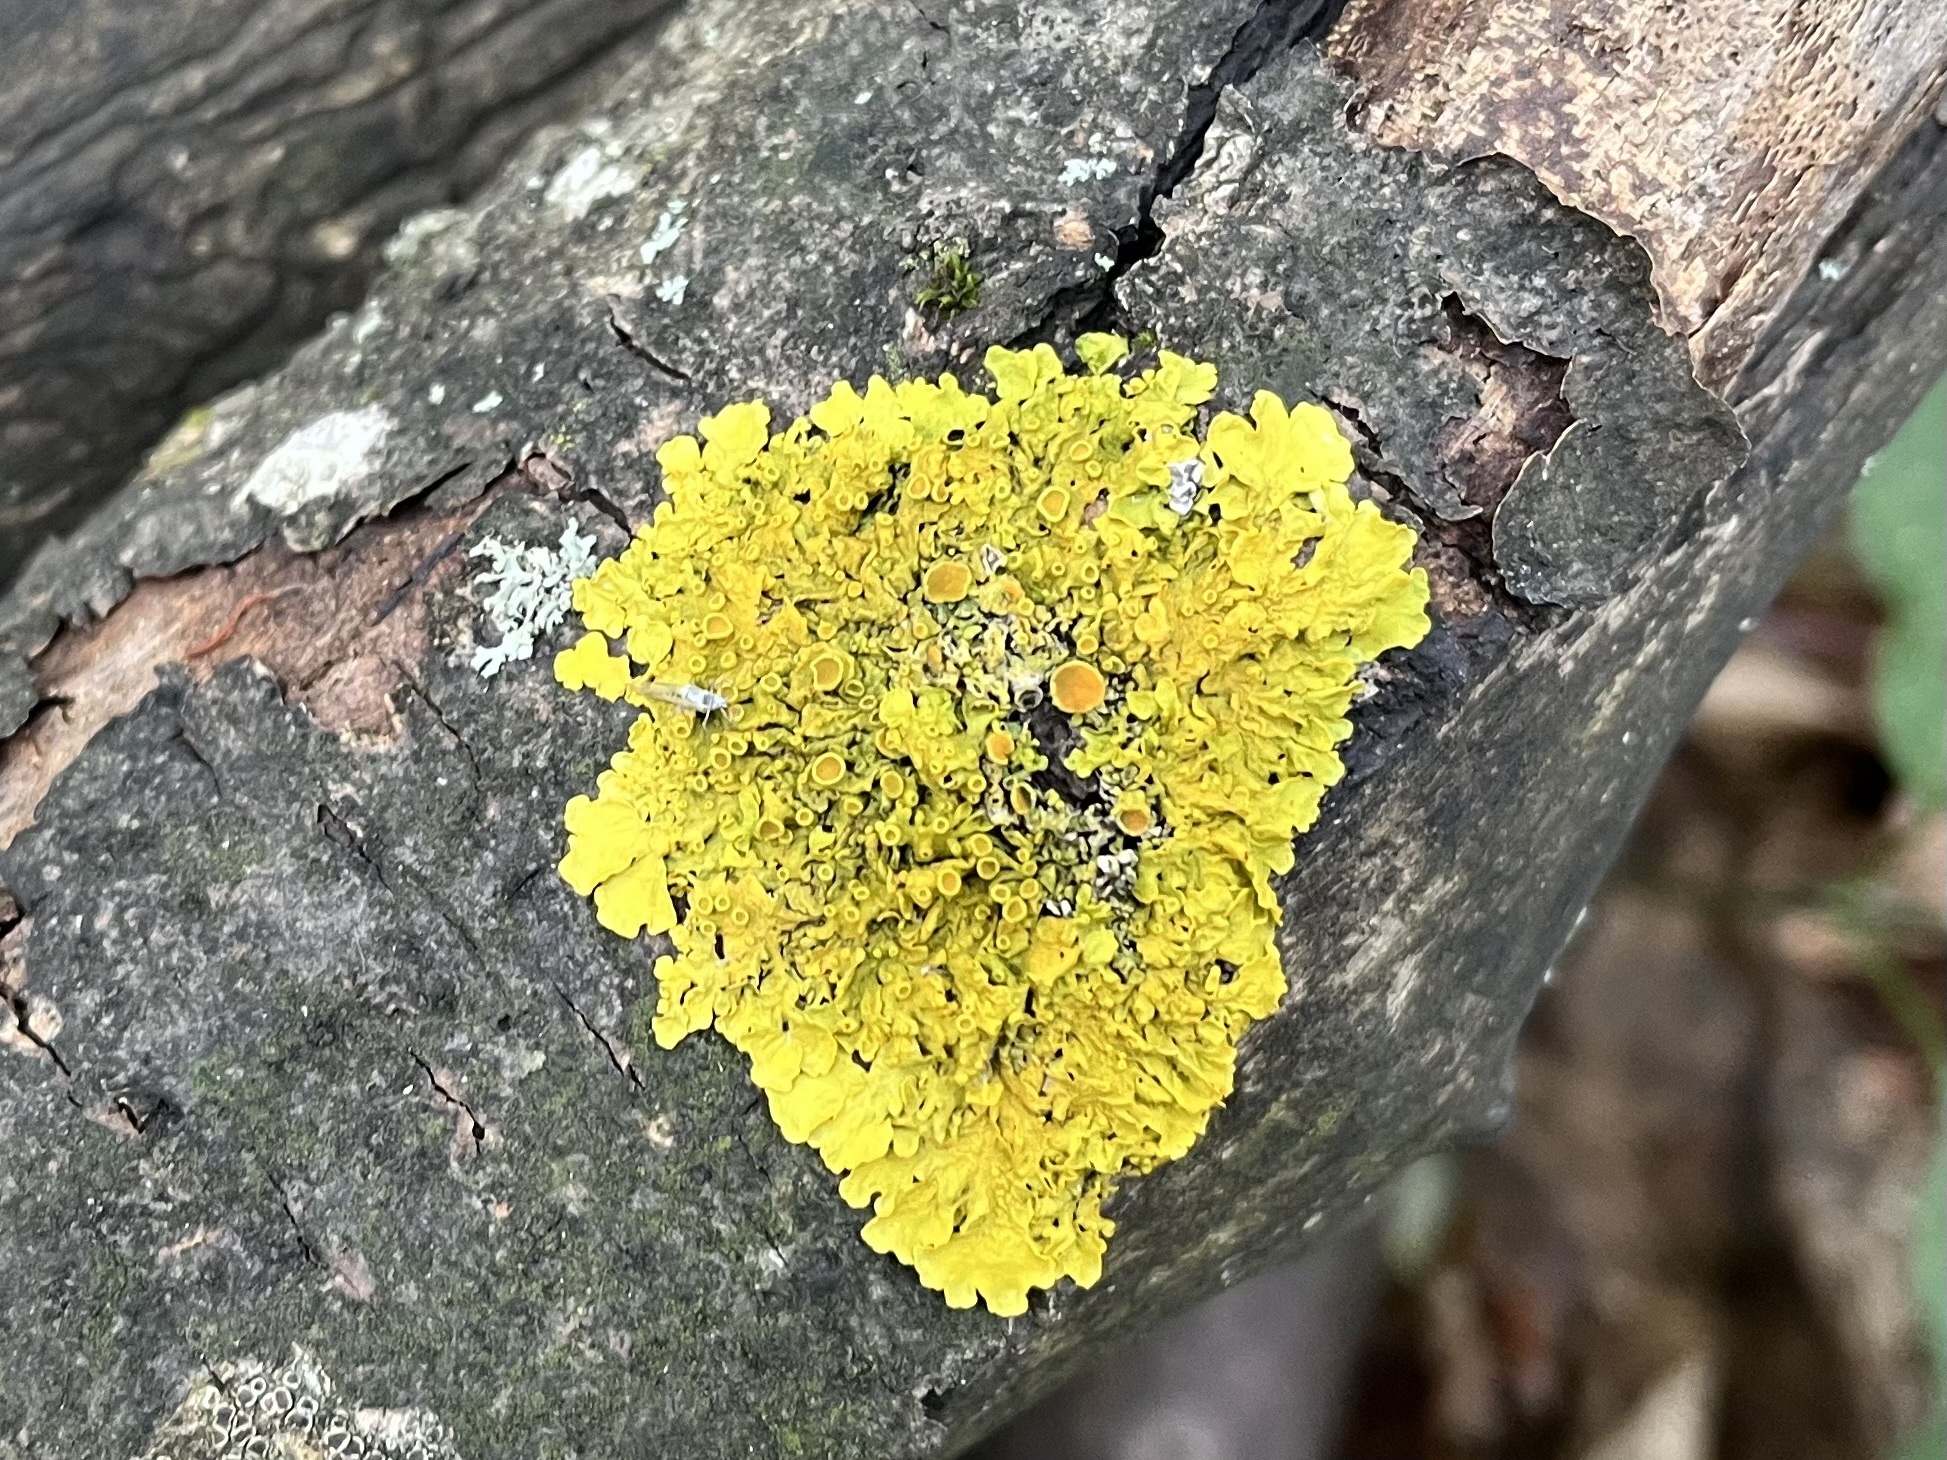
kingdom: Fungi
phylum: Ascomycota
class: Lecanoromycetes
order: Teloschistales
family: Teloschistaceae
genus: Xanthoria
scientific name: Xanthoria parietina
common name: Common orange lichen
